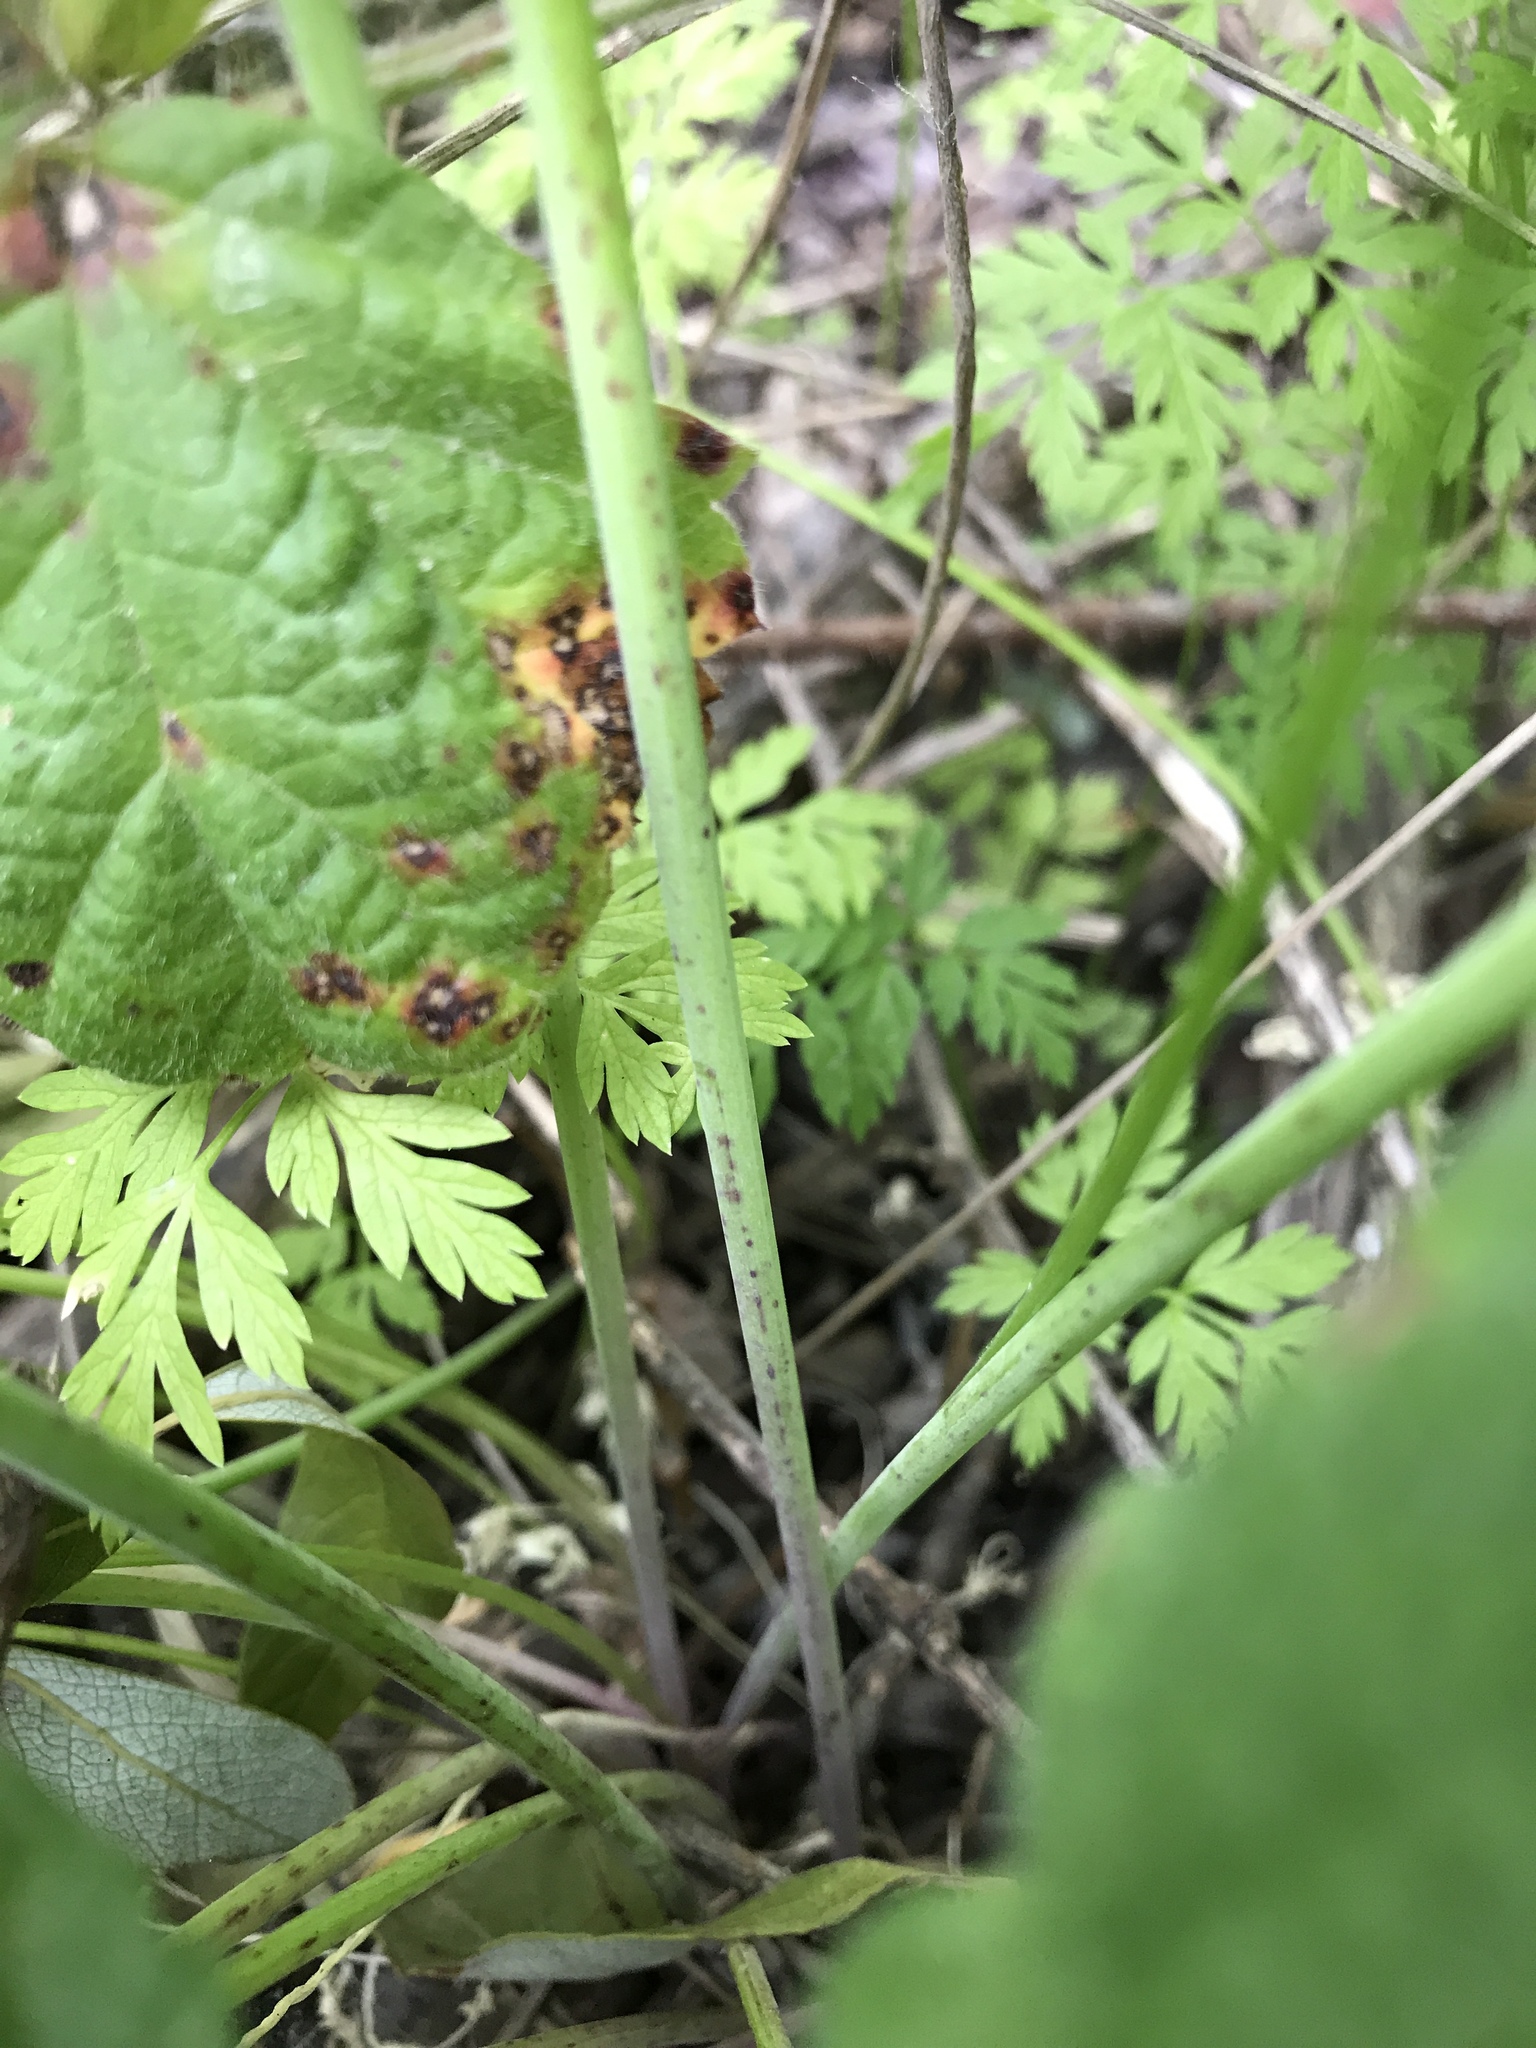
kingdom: Plantae
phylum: Tracheophyta
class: Magnoliopsida
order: Apiales
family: Apiaceae
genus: Conium
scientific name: Conium maculatum
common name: Hemlock
